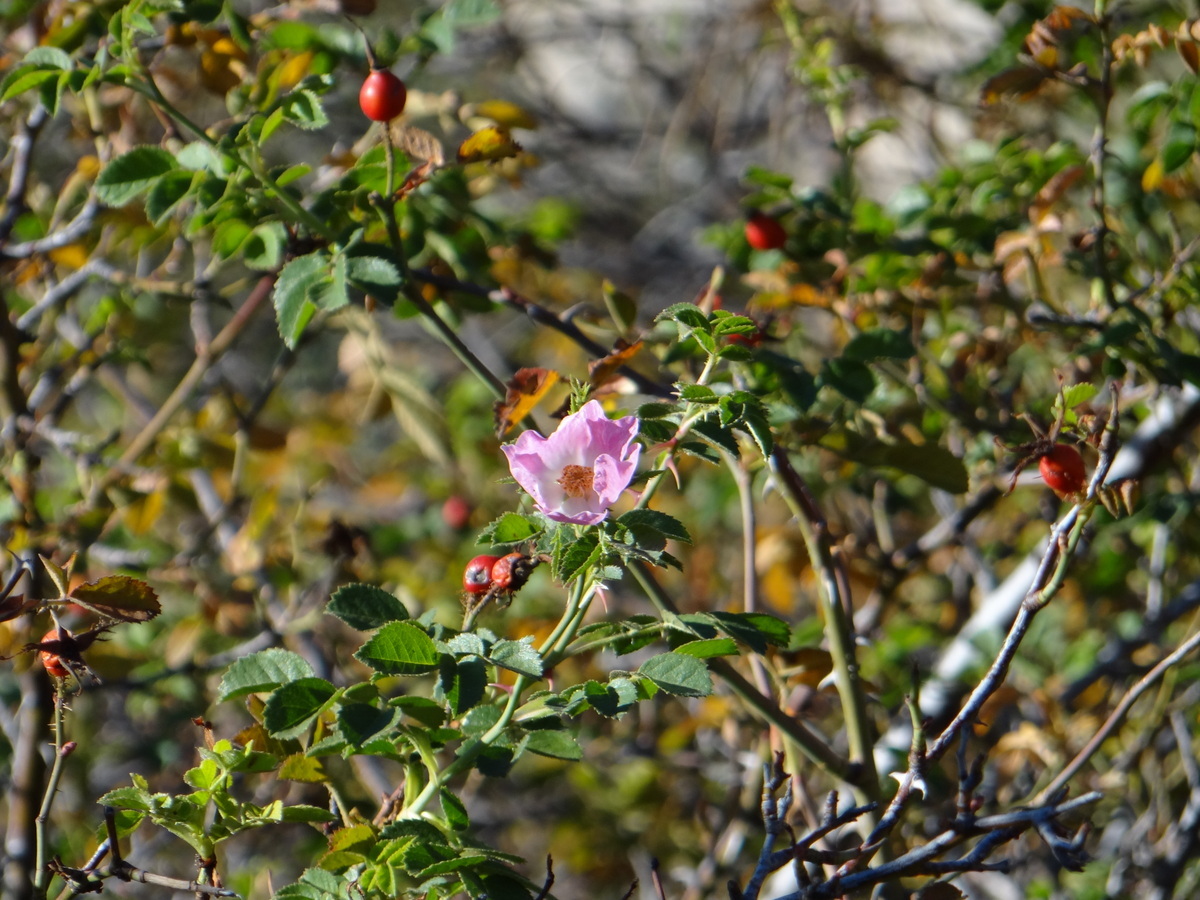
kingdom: Plantae
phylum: Tracheophyta
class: Magnoliopsida
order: Rosales
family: Rosaceae
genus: Rosa
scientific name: Rosa pulverulenta
